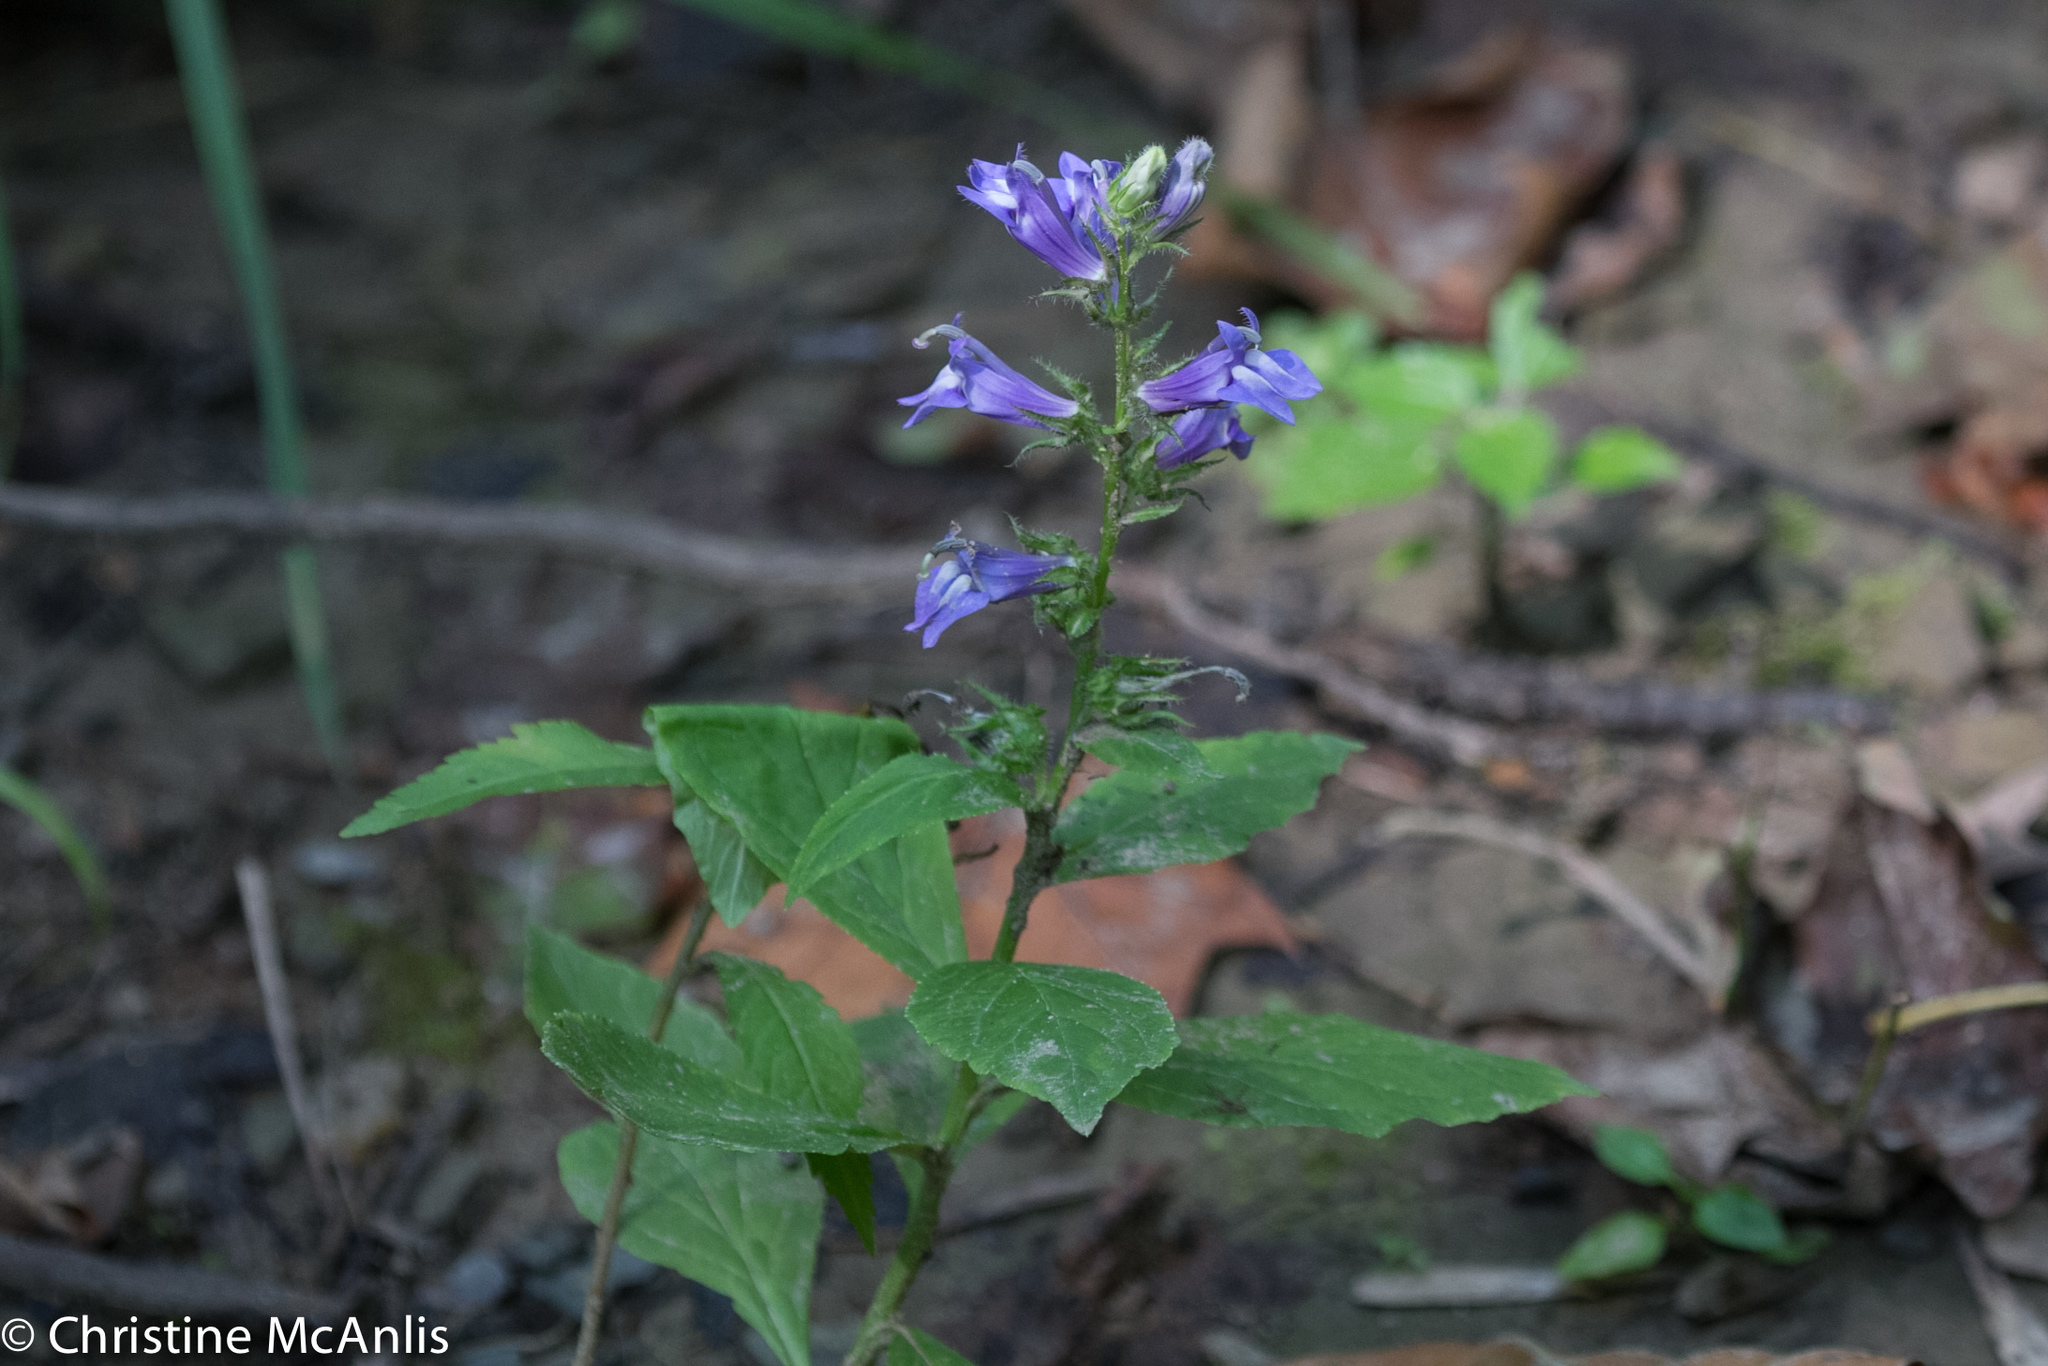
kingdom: Plantae
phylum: Tracheophyta
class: Magnoliopsida
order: Asterales
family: Campanulaceae
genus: Lobelia
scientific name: Lobelia siphilitica
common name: Great lobelia
